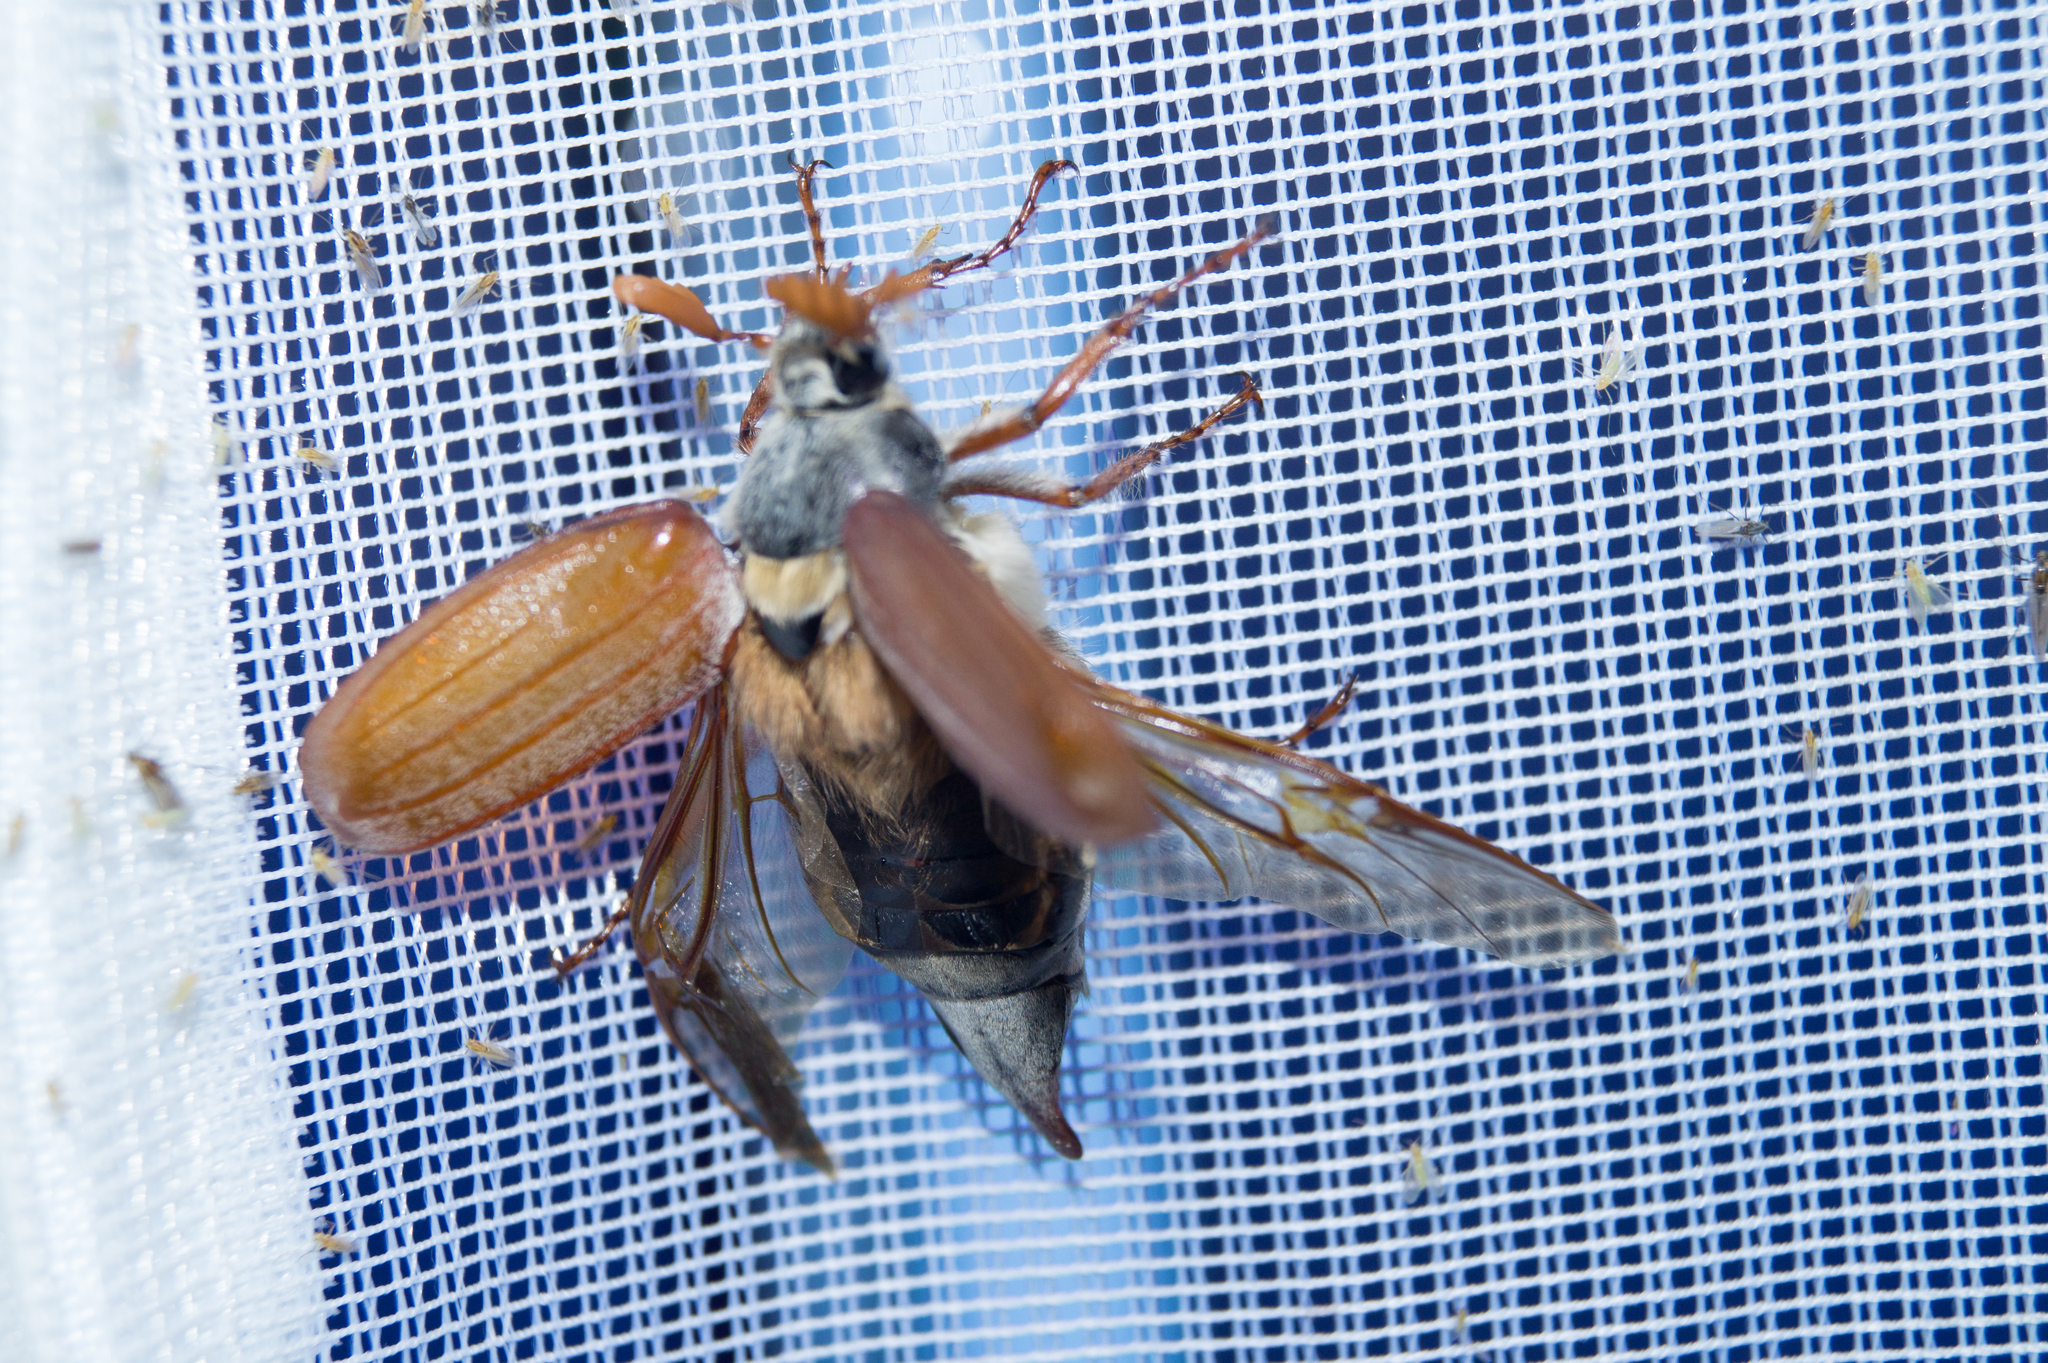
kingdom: Animalia
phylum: Arthropoda
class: Insecta
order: Coleoptera
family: Scarabaeidae
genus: Melolontha
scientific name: Melolontha melolontha
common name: Cockchafer maybeetle
